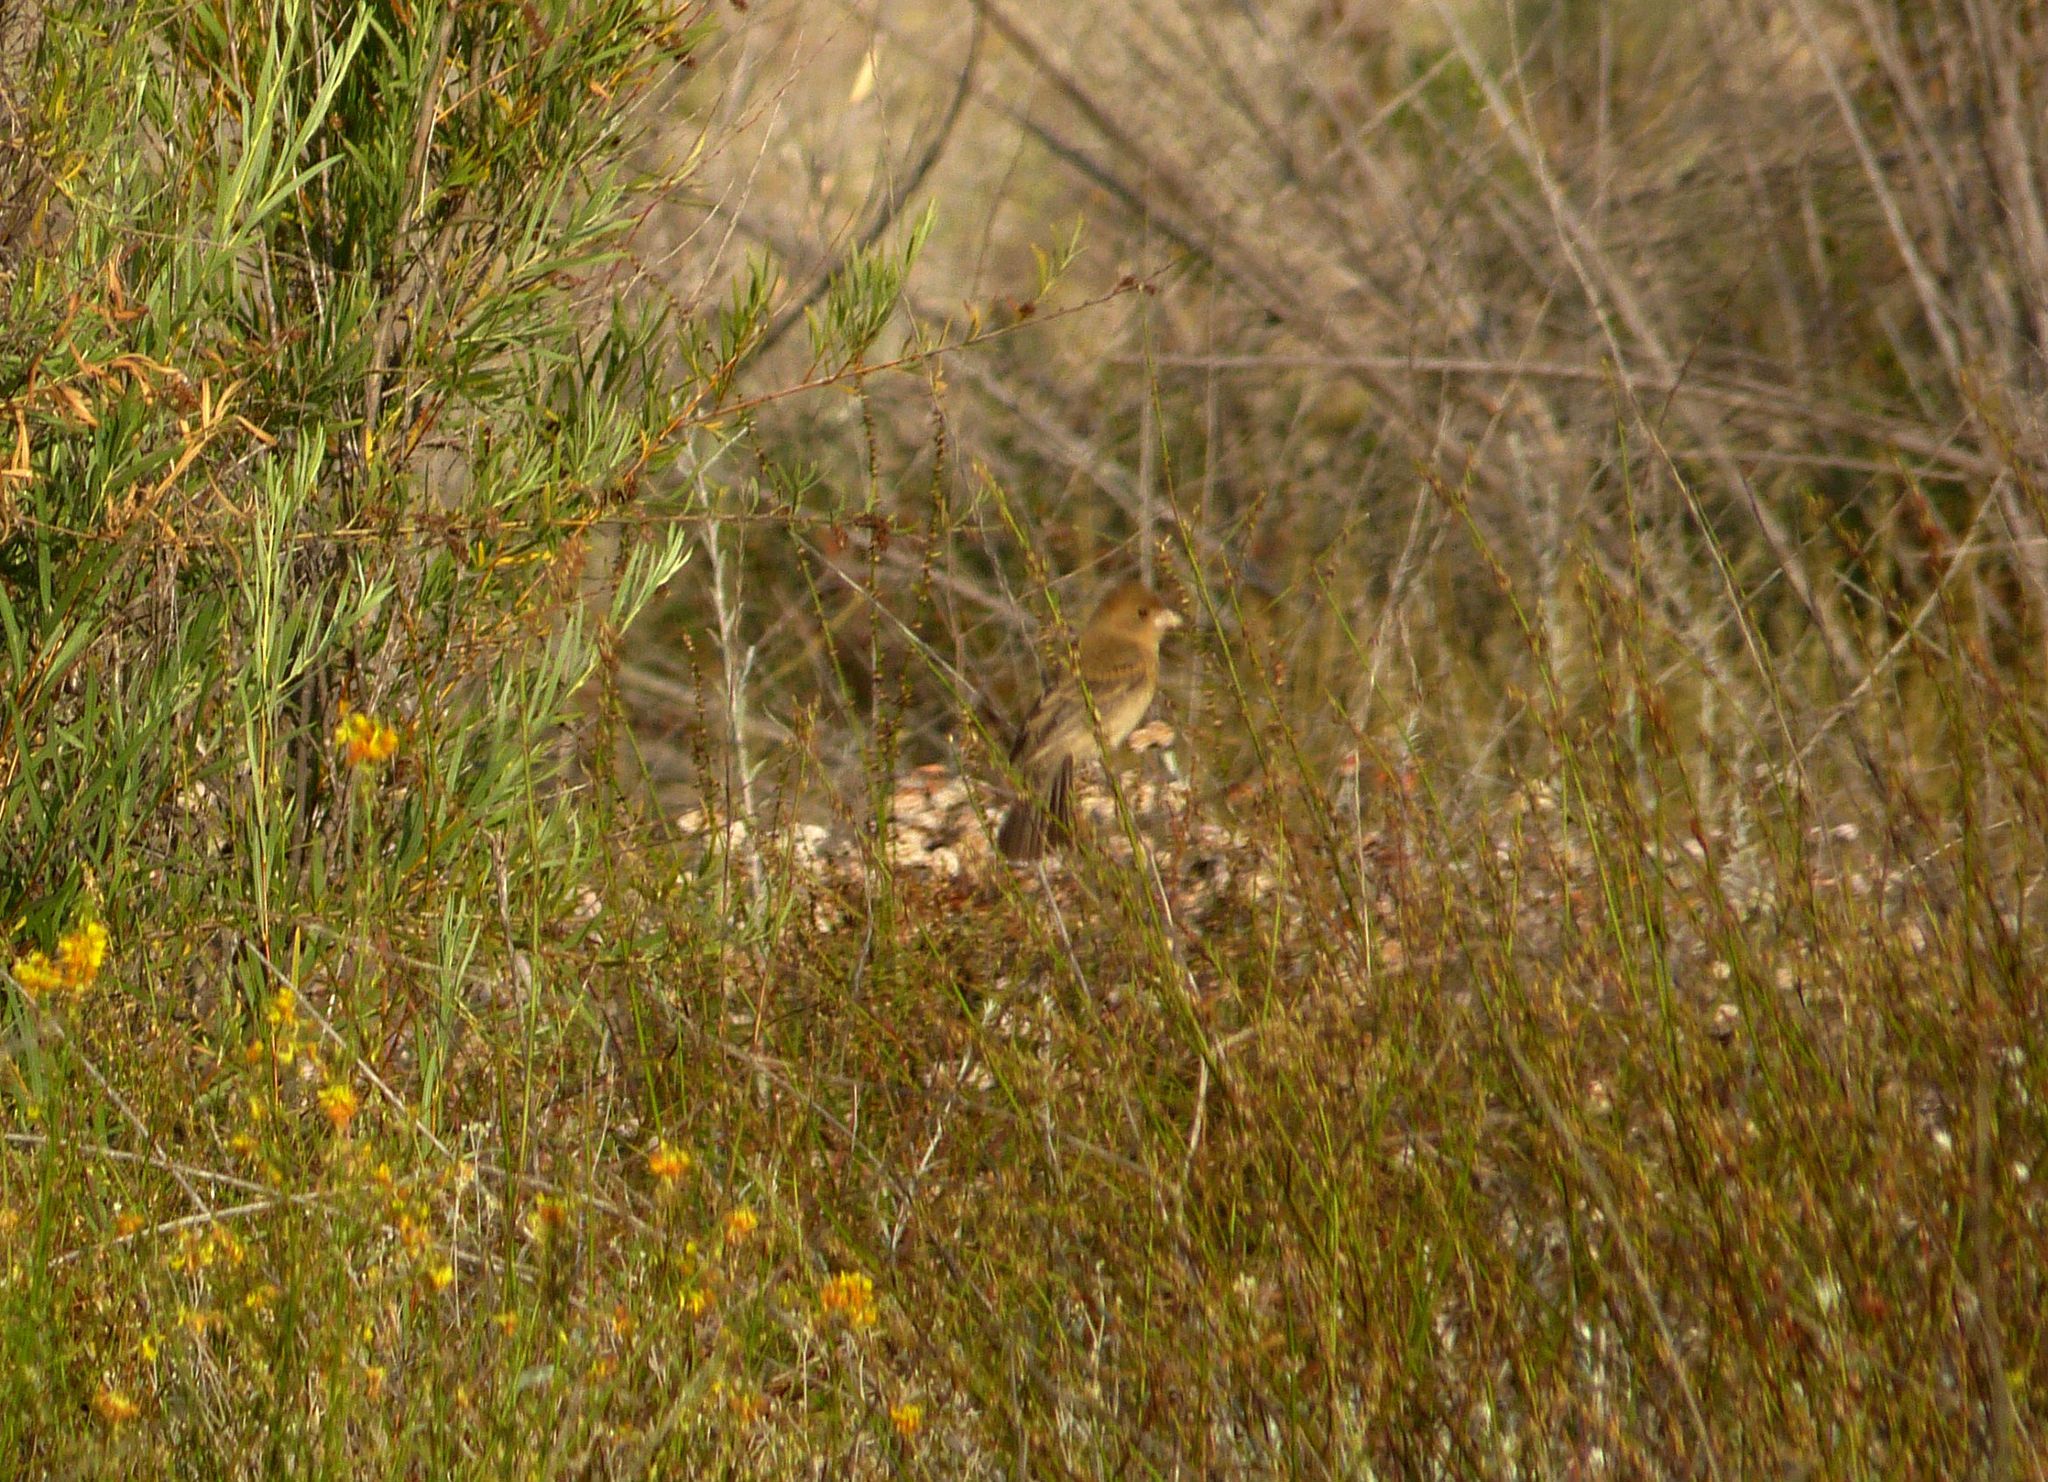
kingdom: Animalia
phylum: Chordata
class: Aves
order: Passeriformes
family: Cardinalidae
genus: Passerina
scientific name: Passerina amoena
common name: Lazuli bunting
